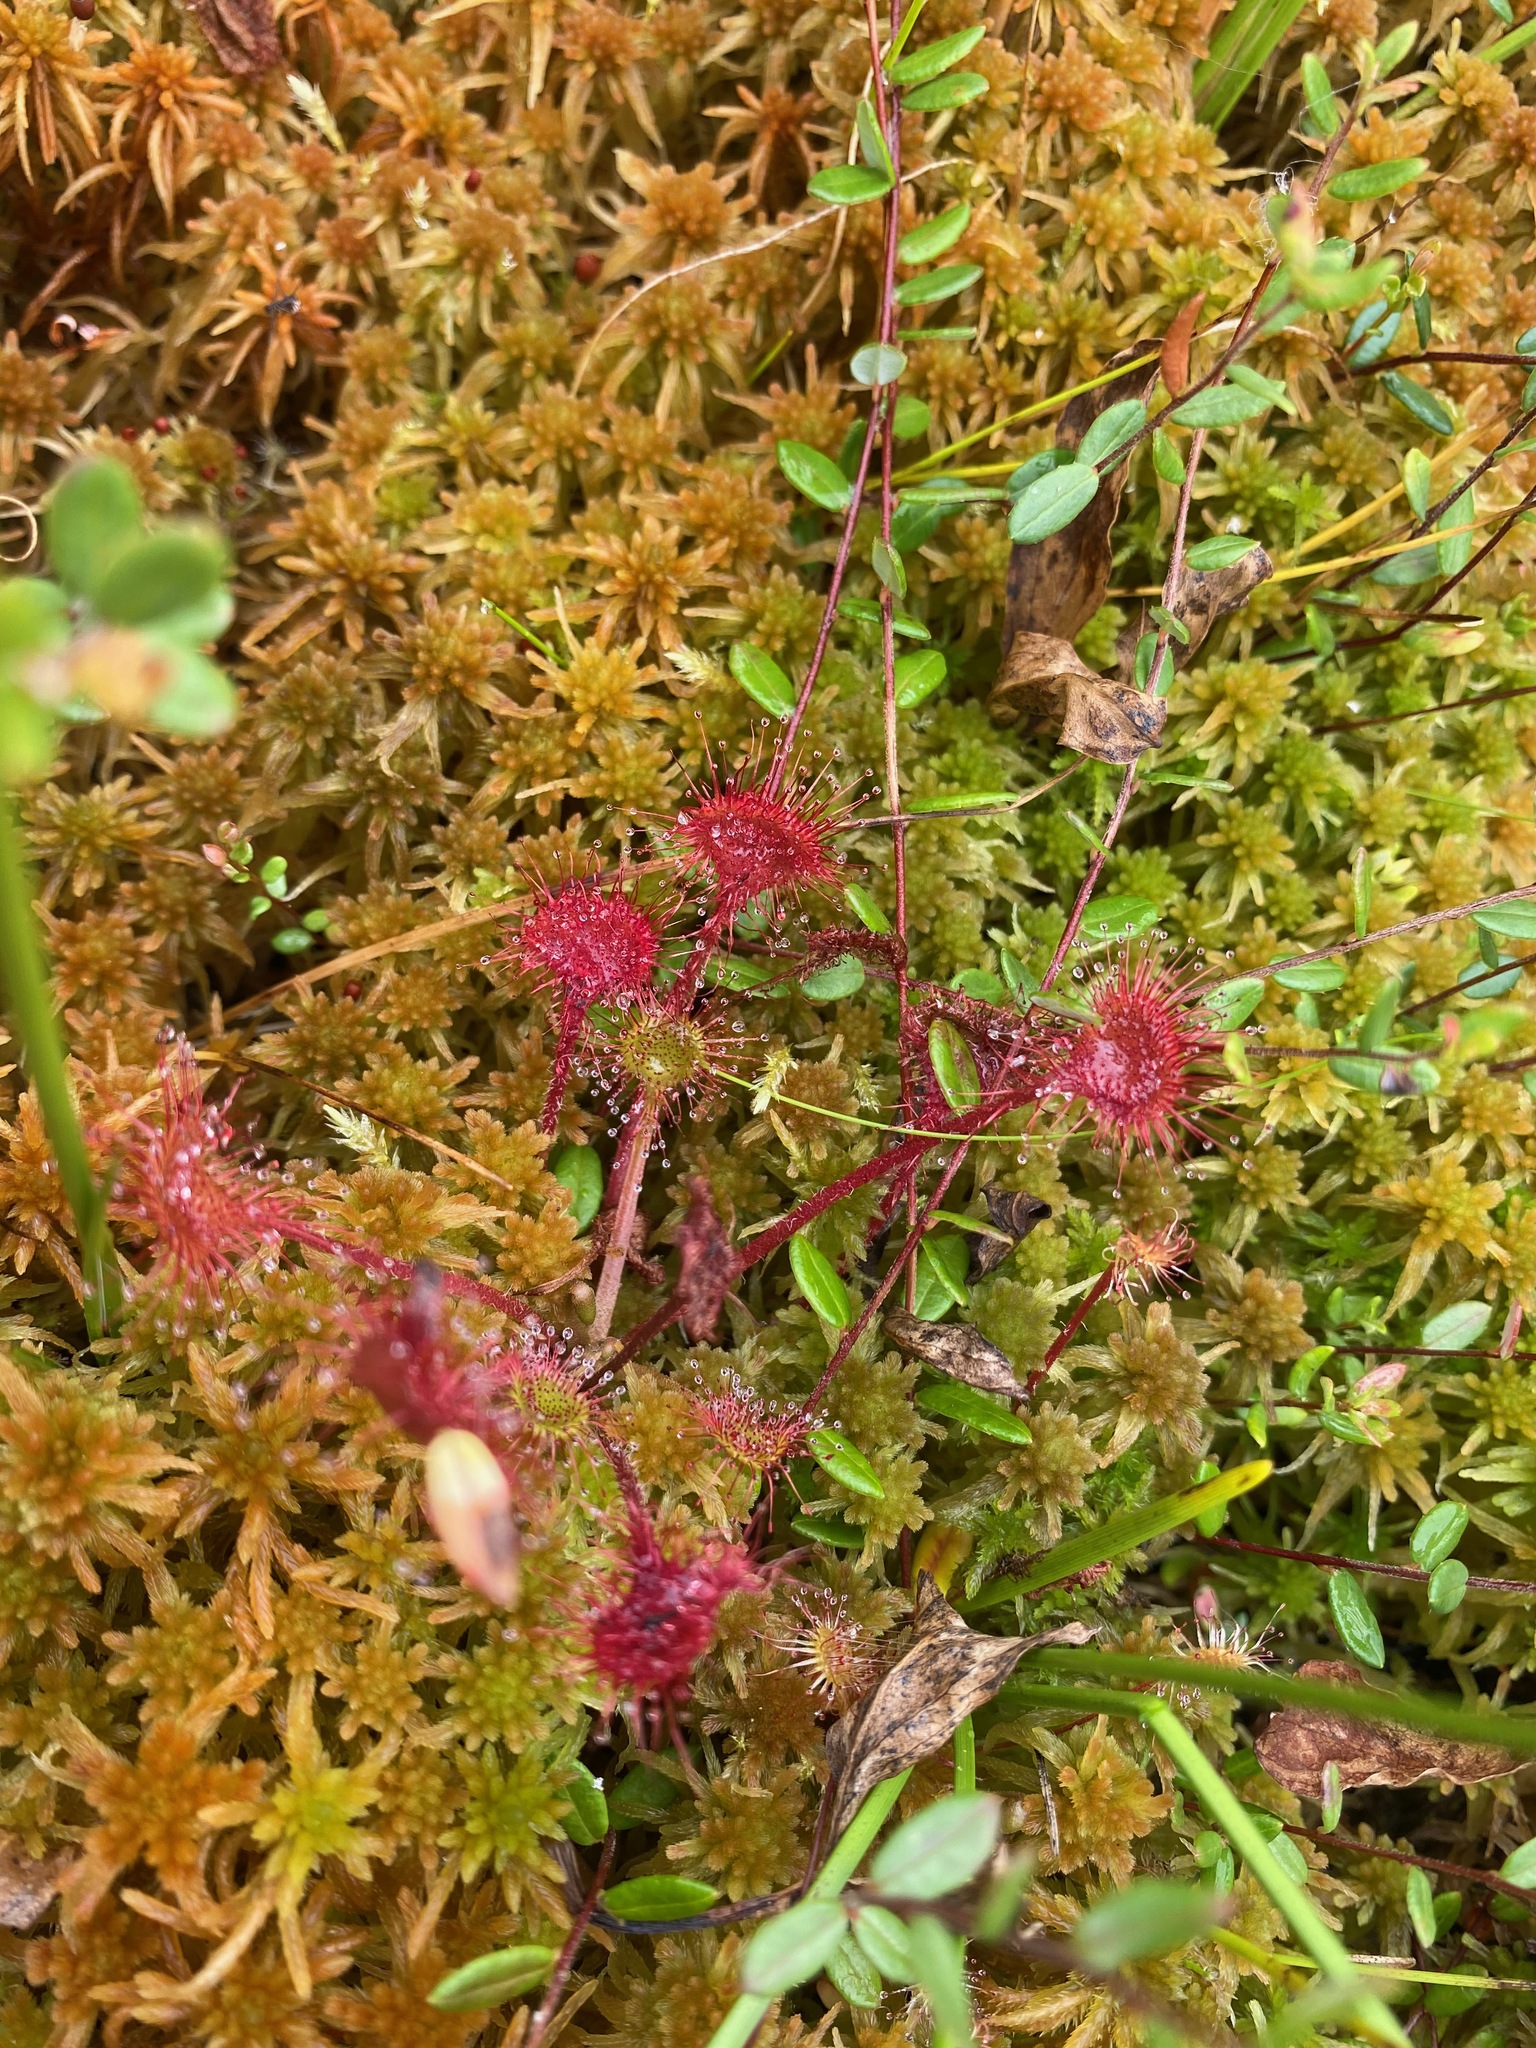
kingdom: Plantae
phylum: Tracheophyta
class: Magnoliopsida
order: Caryophyllales
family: Droseraceae
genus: Drosera
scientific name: Drosera rotundifolia
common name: Round-leaved sundew
